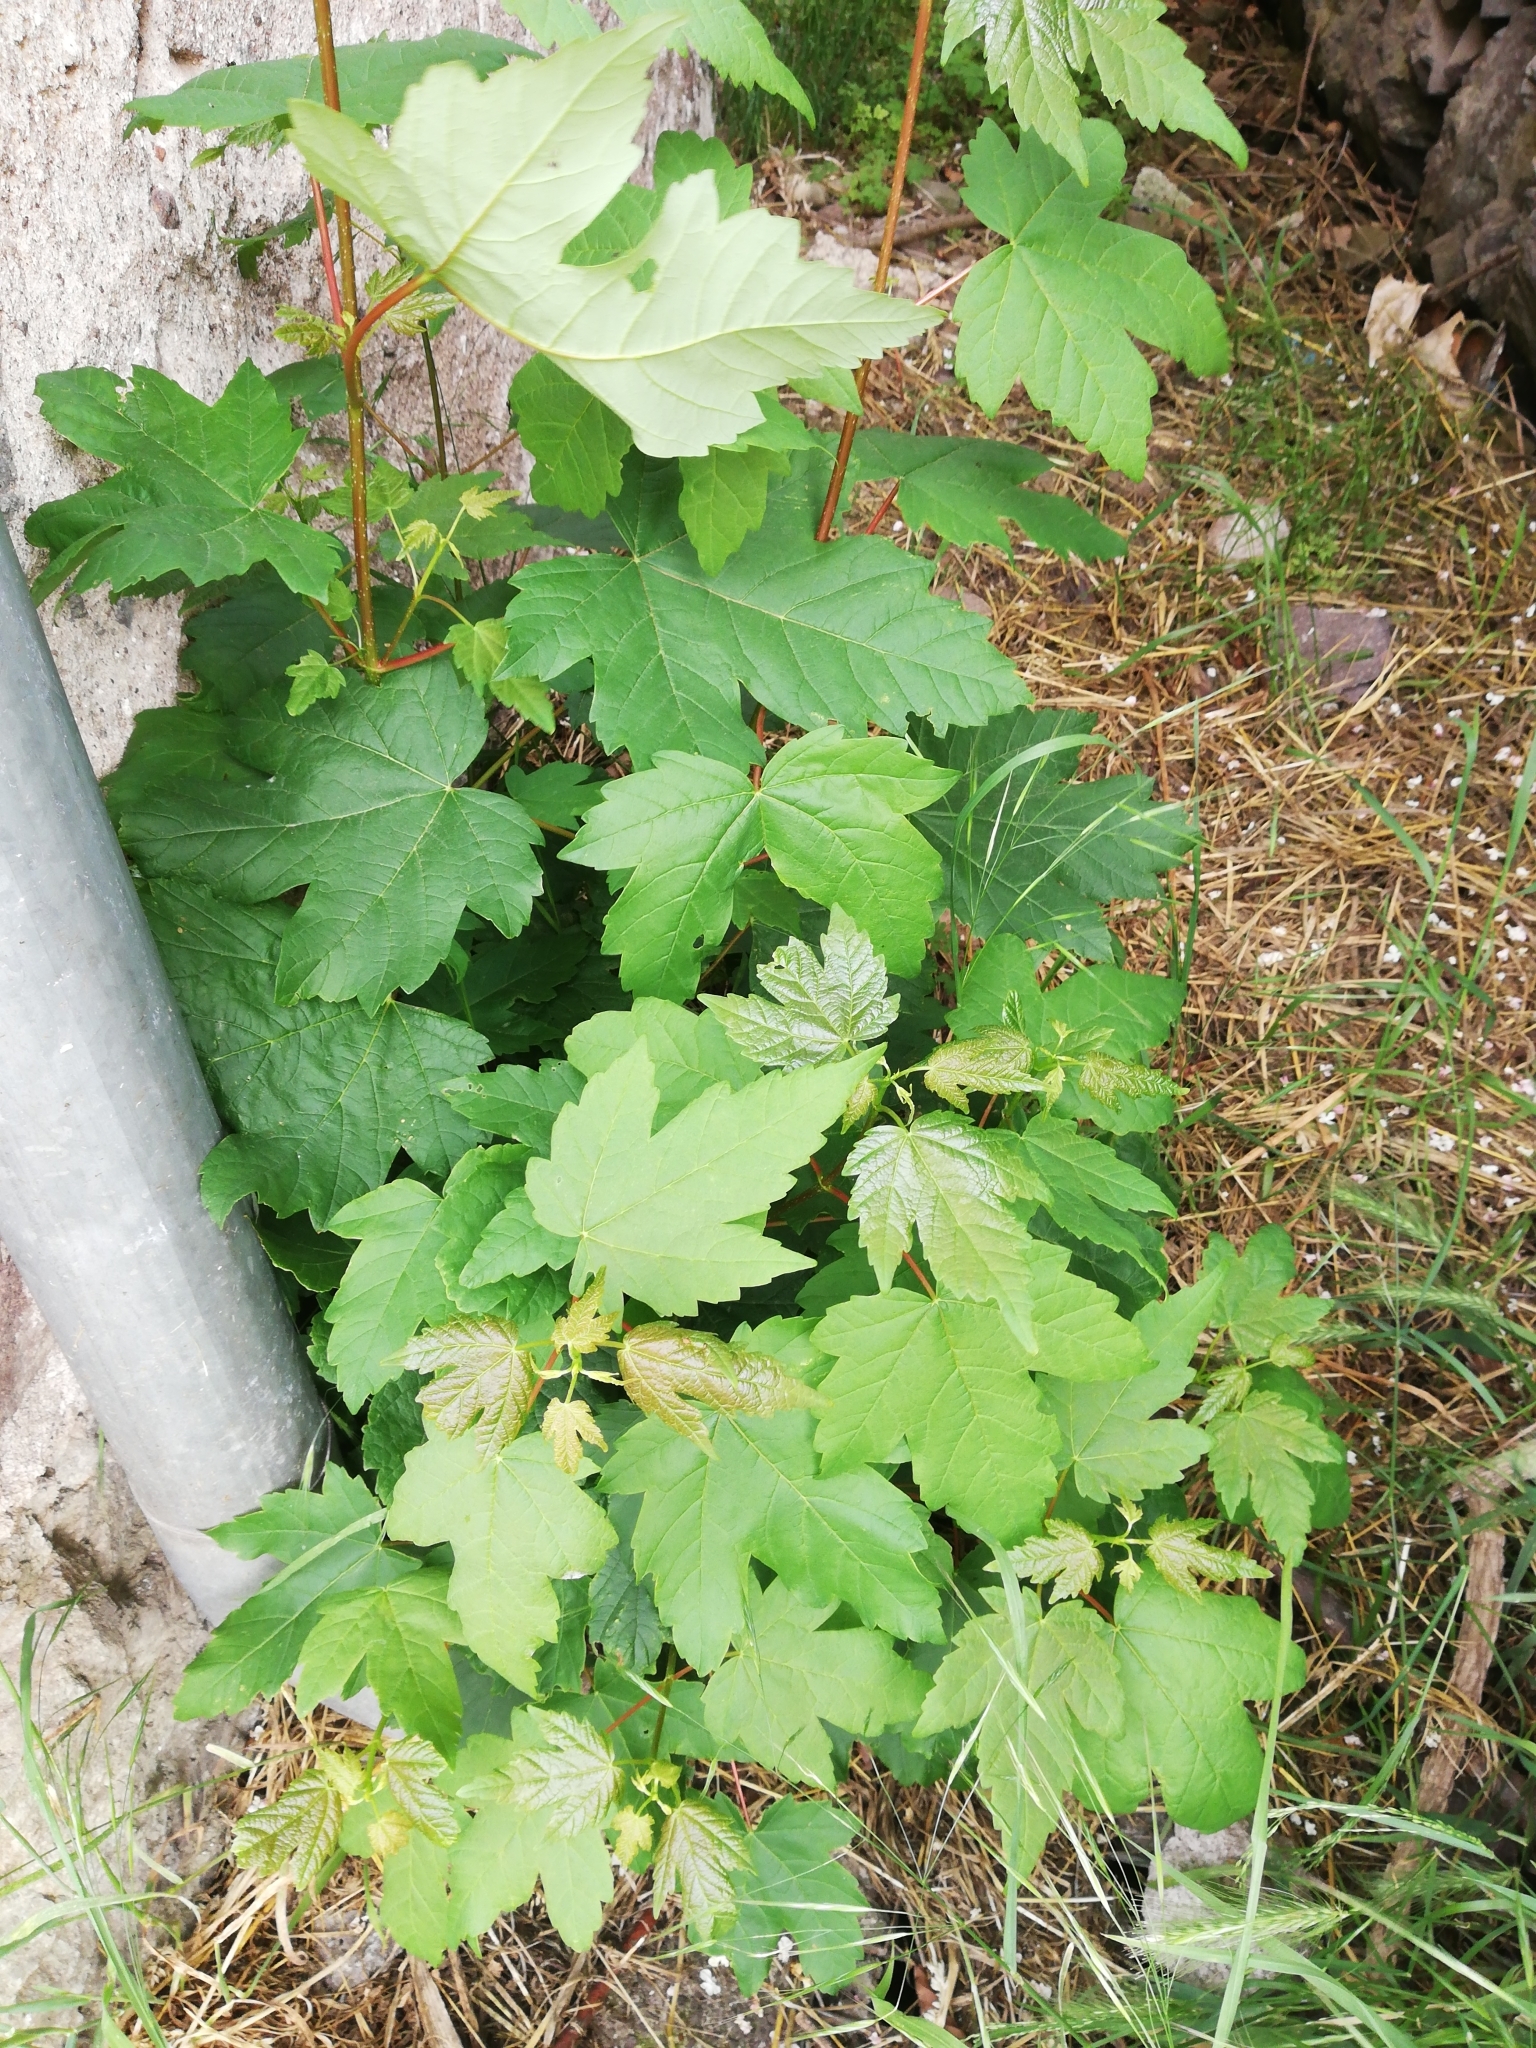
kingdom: Plantae
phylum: Tracheophyta
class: Magnoliopsida
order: Sapindales
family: Sapindaceae
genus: Acer
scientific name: Acer pseudoplatanus
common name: Sycamore
